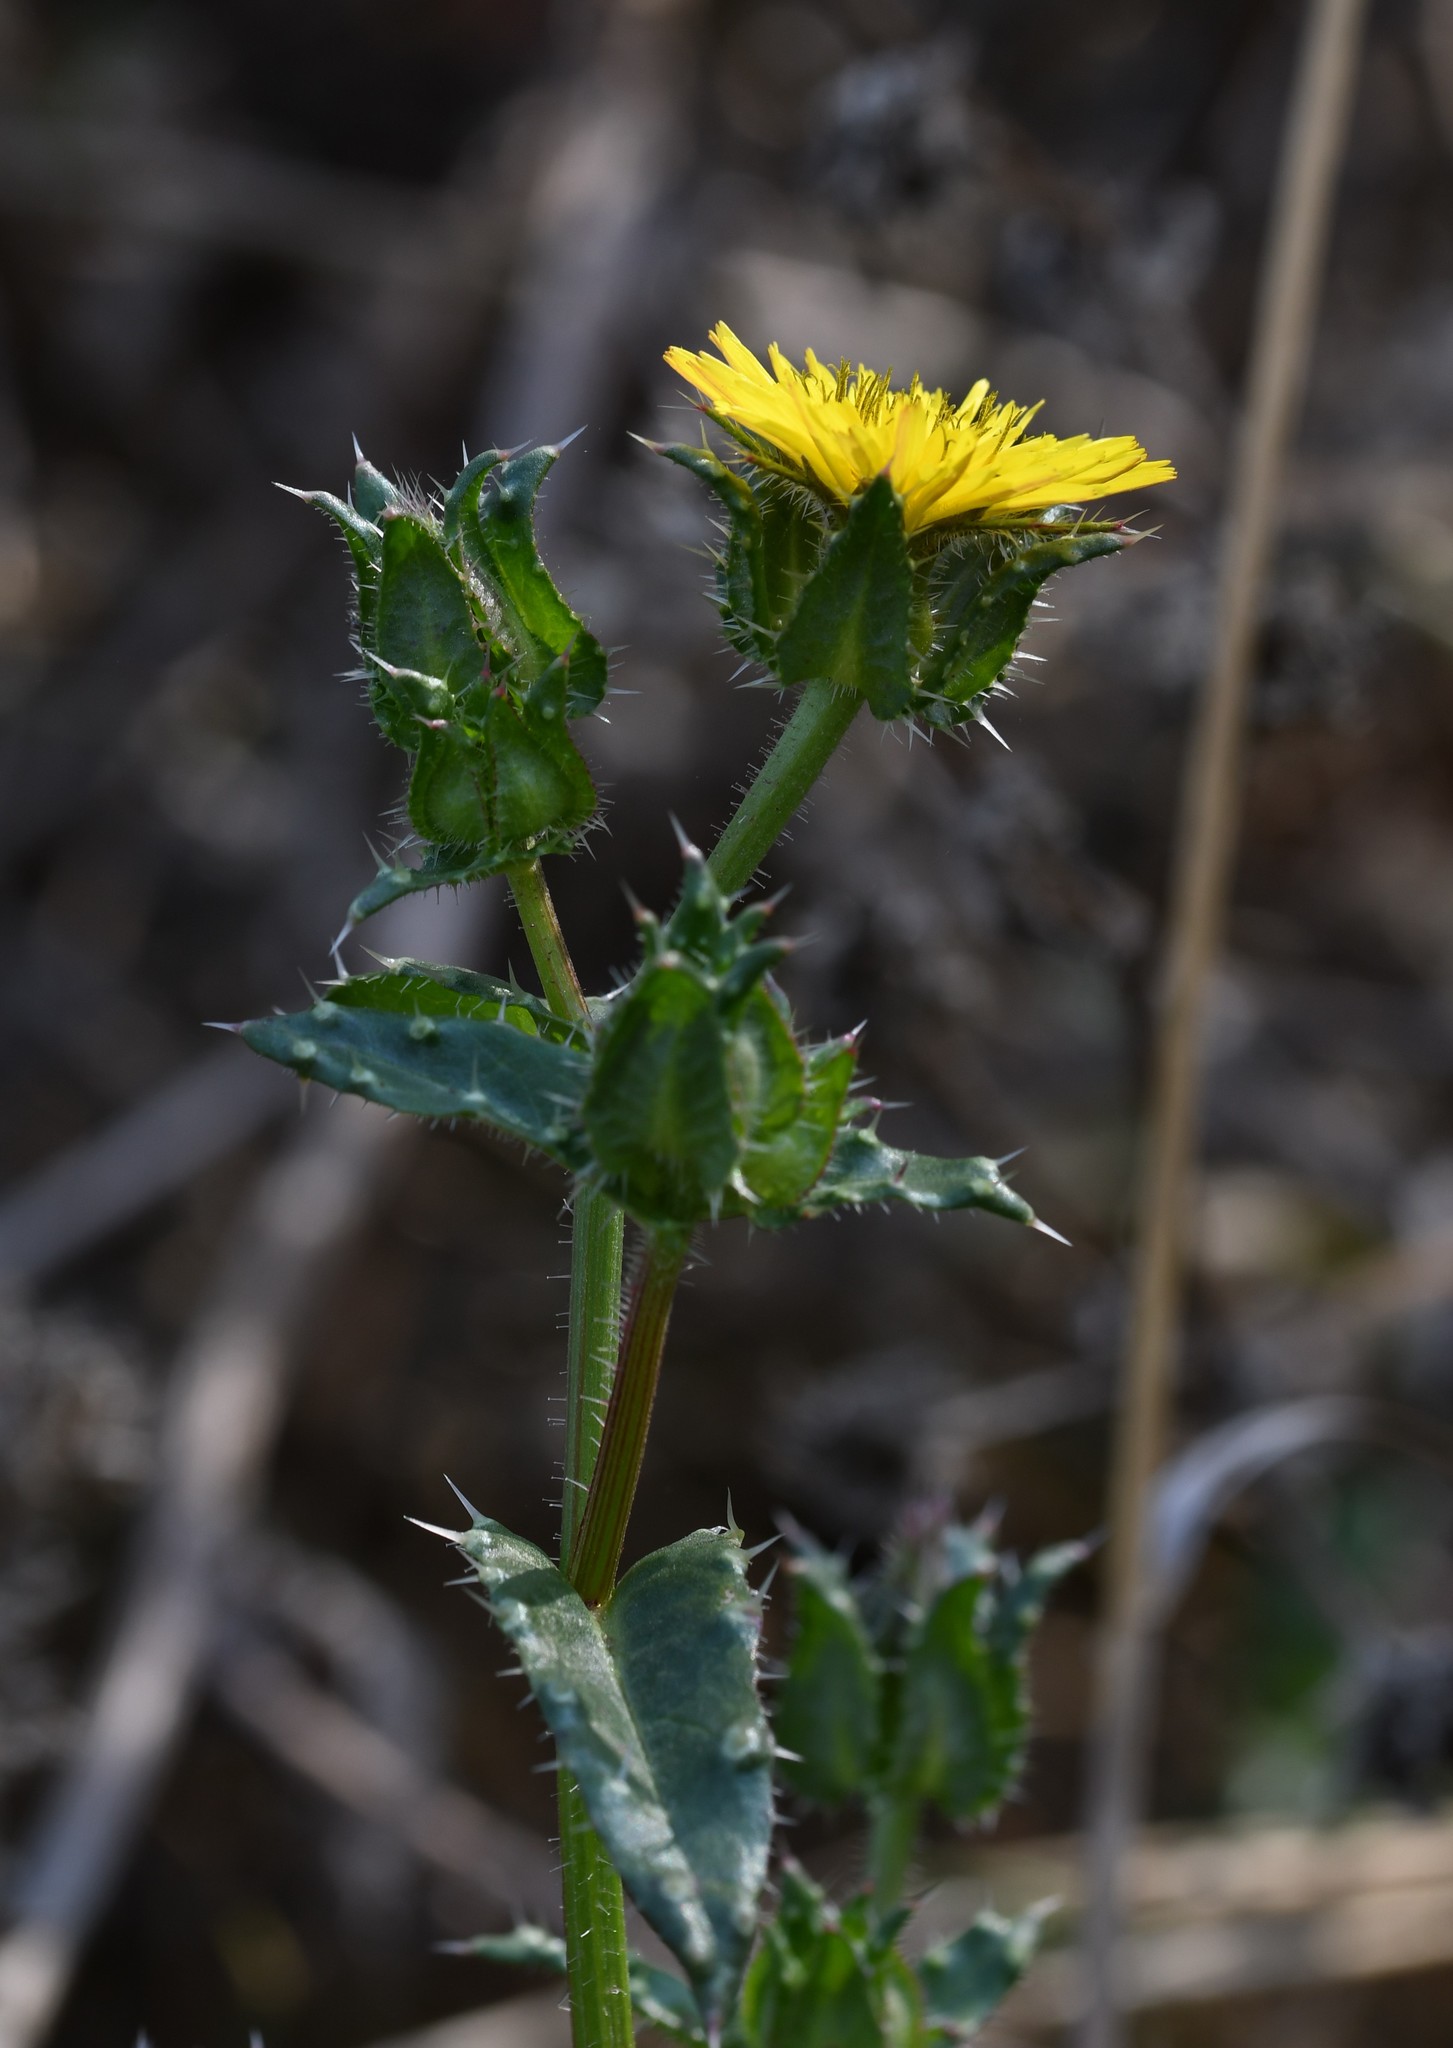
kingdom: Plantae
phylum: Tracheophyta
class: Magnoliopsida
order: Asterales
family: Asteraceae
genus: Helminthotheca
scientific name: Helminthotheca echioides
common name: Ox-tongue
